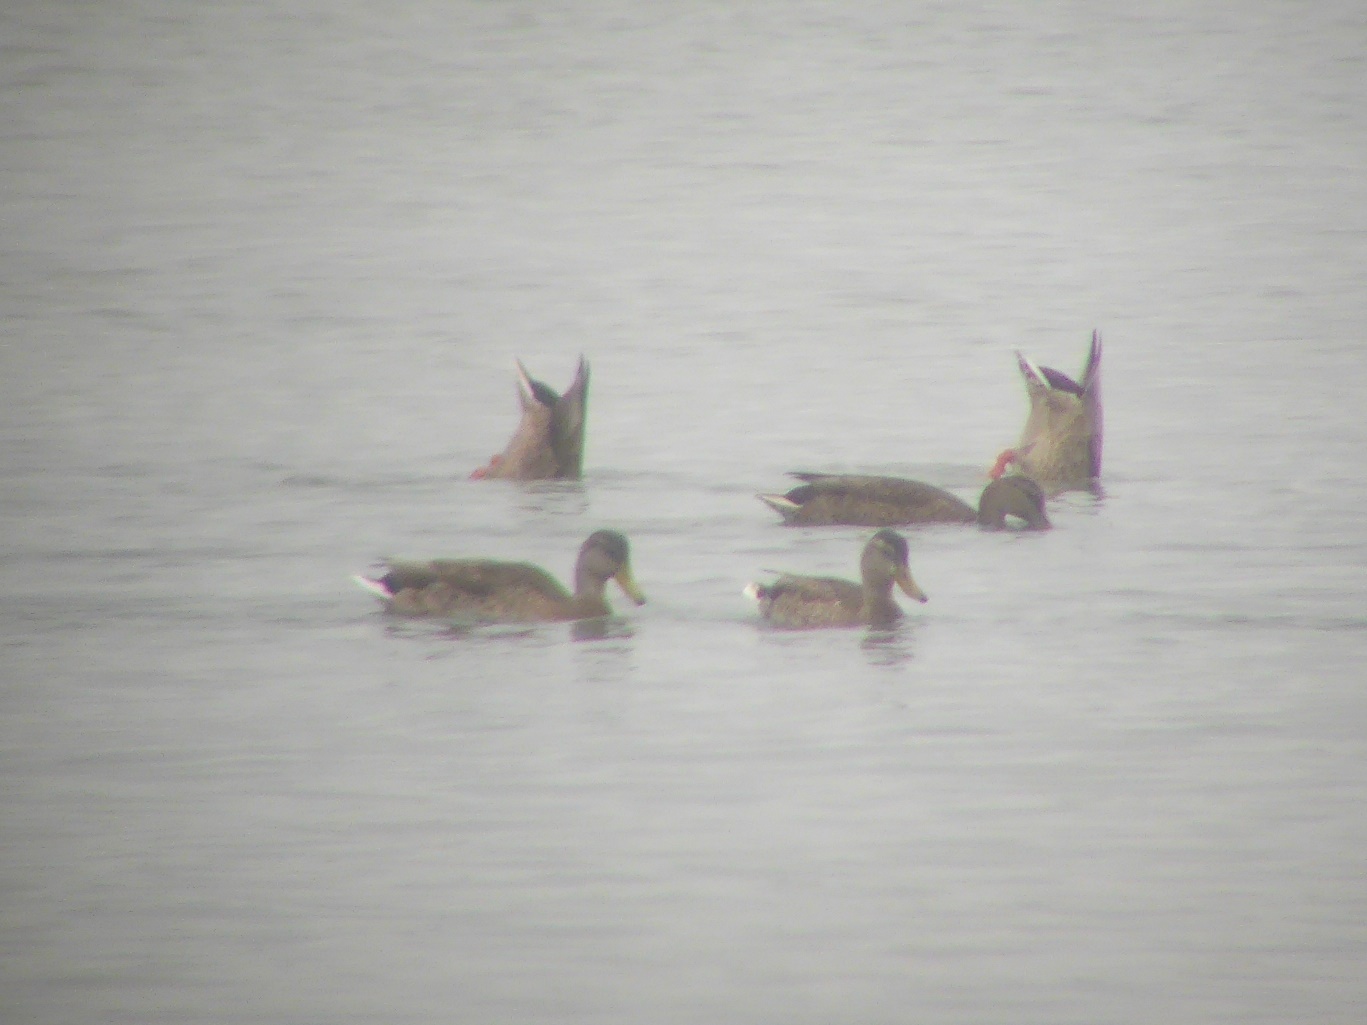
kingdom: Animalia
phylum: Chordata
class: Aves
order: Anseriformes
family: Anatidae
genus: Anas
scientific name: Anas platyrhynchos
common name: Mallard
